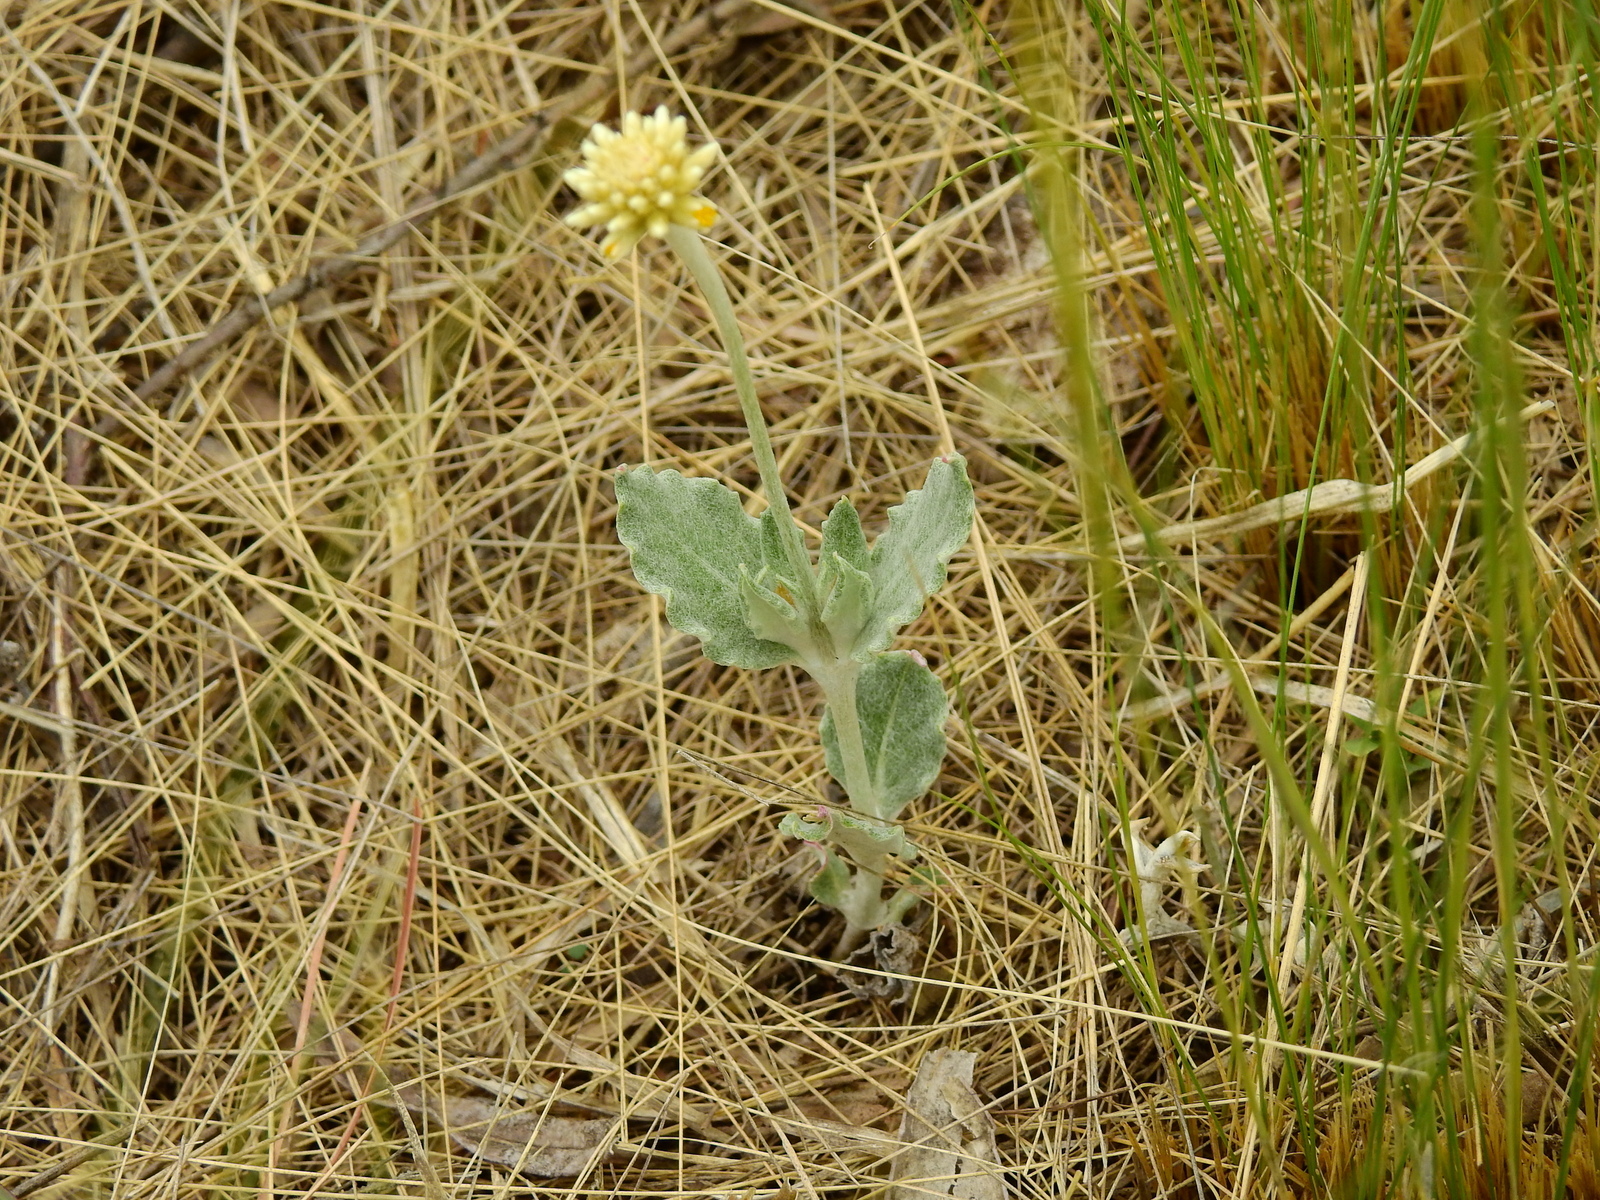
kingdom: Plantae
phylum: Tracheophyta
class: Magnoliopsida
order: Caryophyllales
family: Amaranthaceae
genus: Pfaffia
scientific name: Pfaffia gnaphalioides
